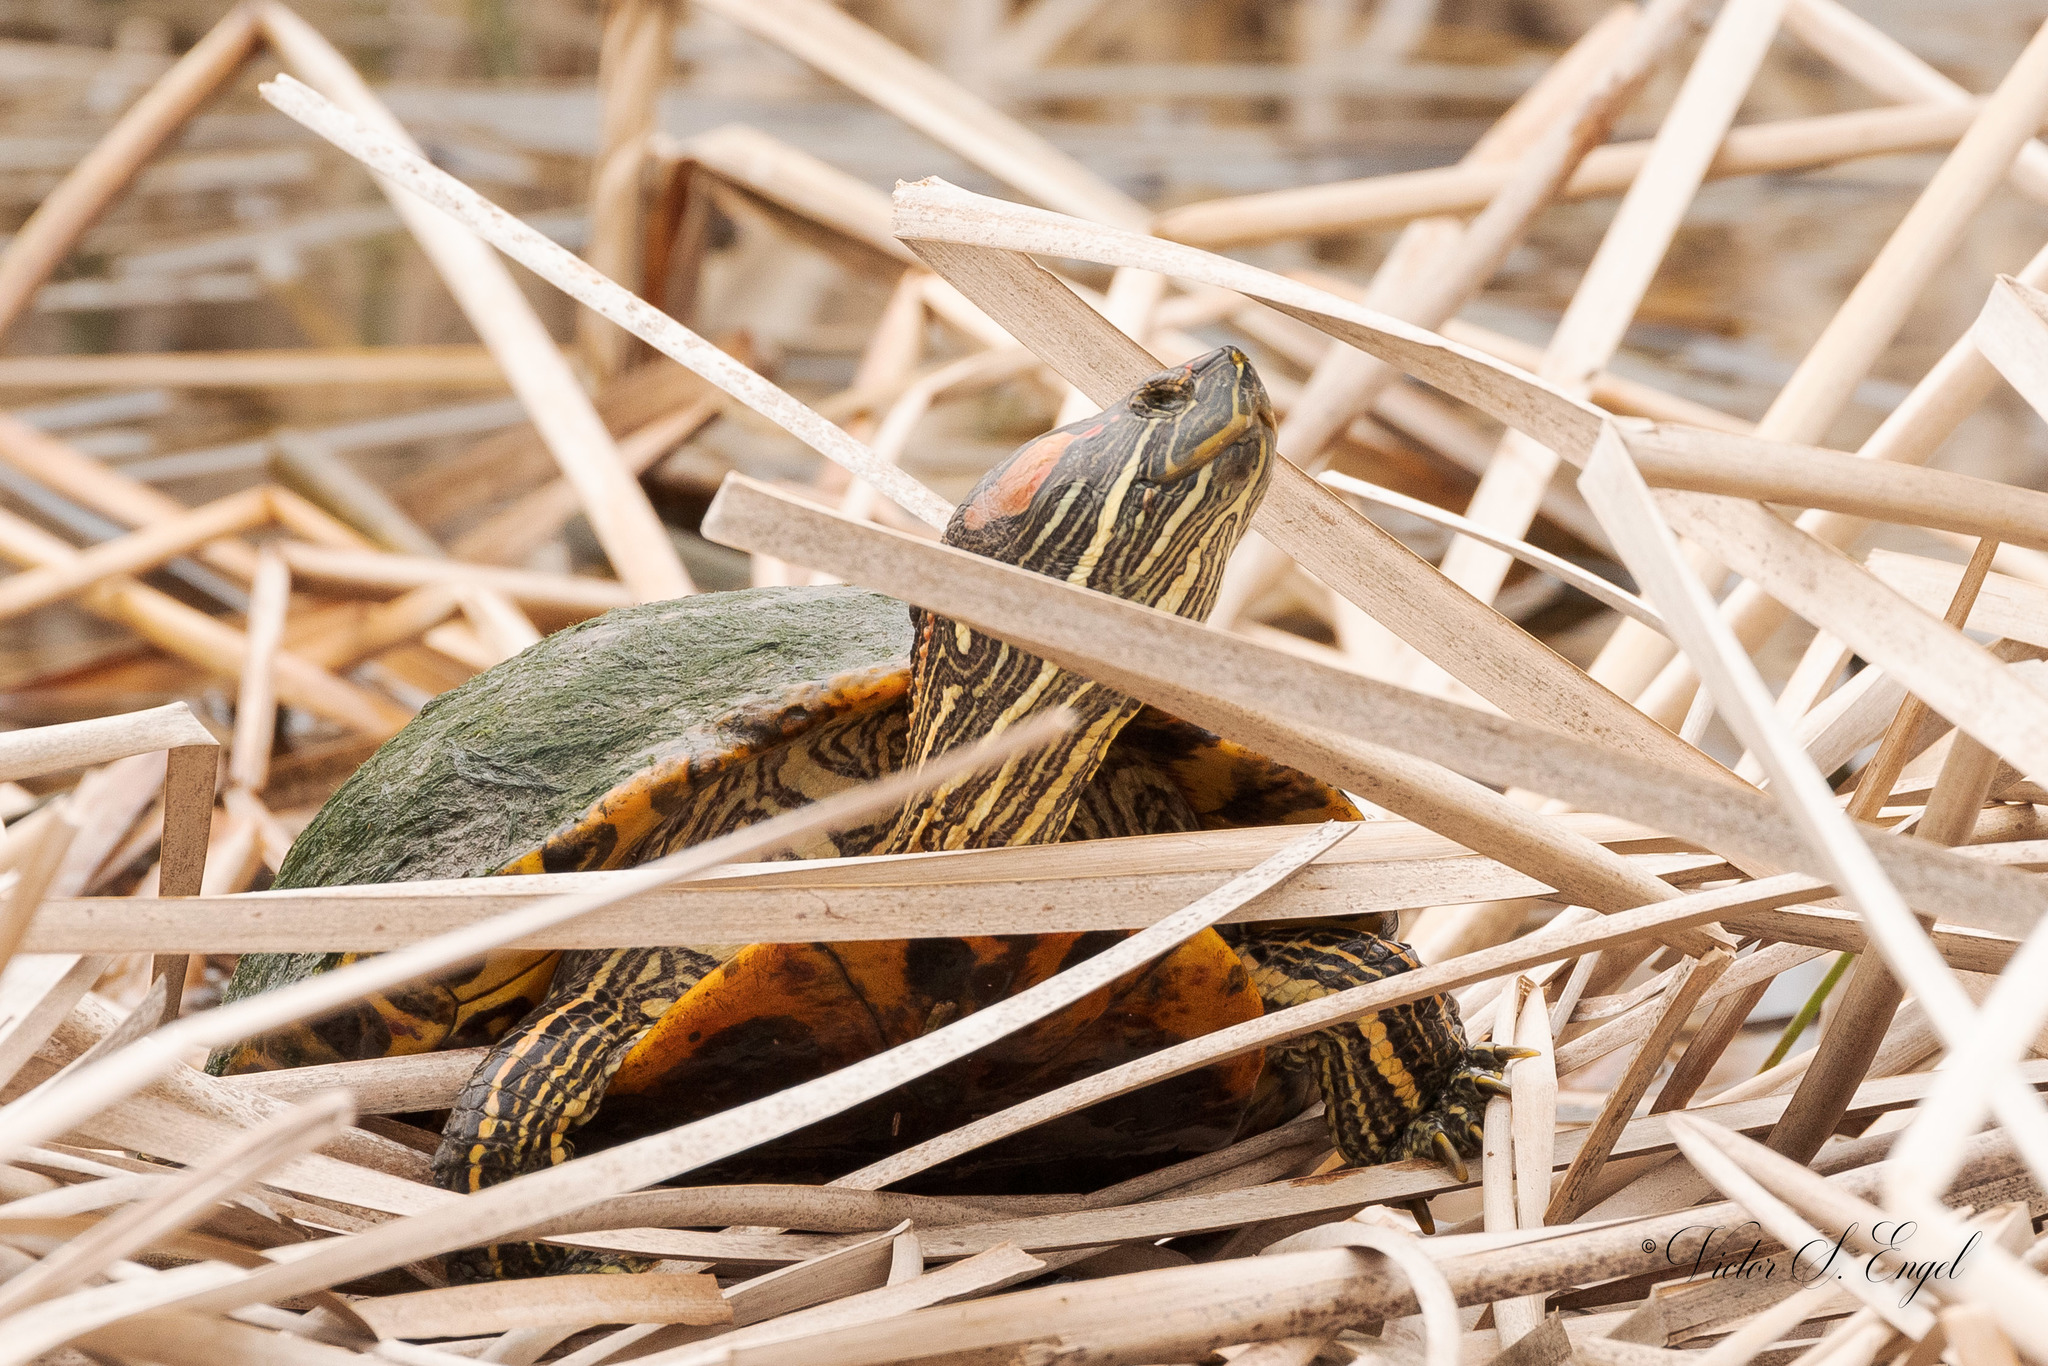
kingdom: Animalia
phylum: Chordata
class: Testudines
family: Emydidae
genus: Trachemys
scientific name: Trachemys scripta
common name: Slider
